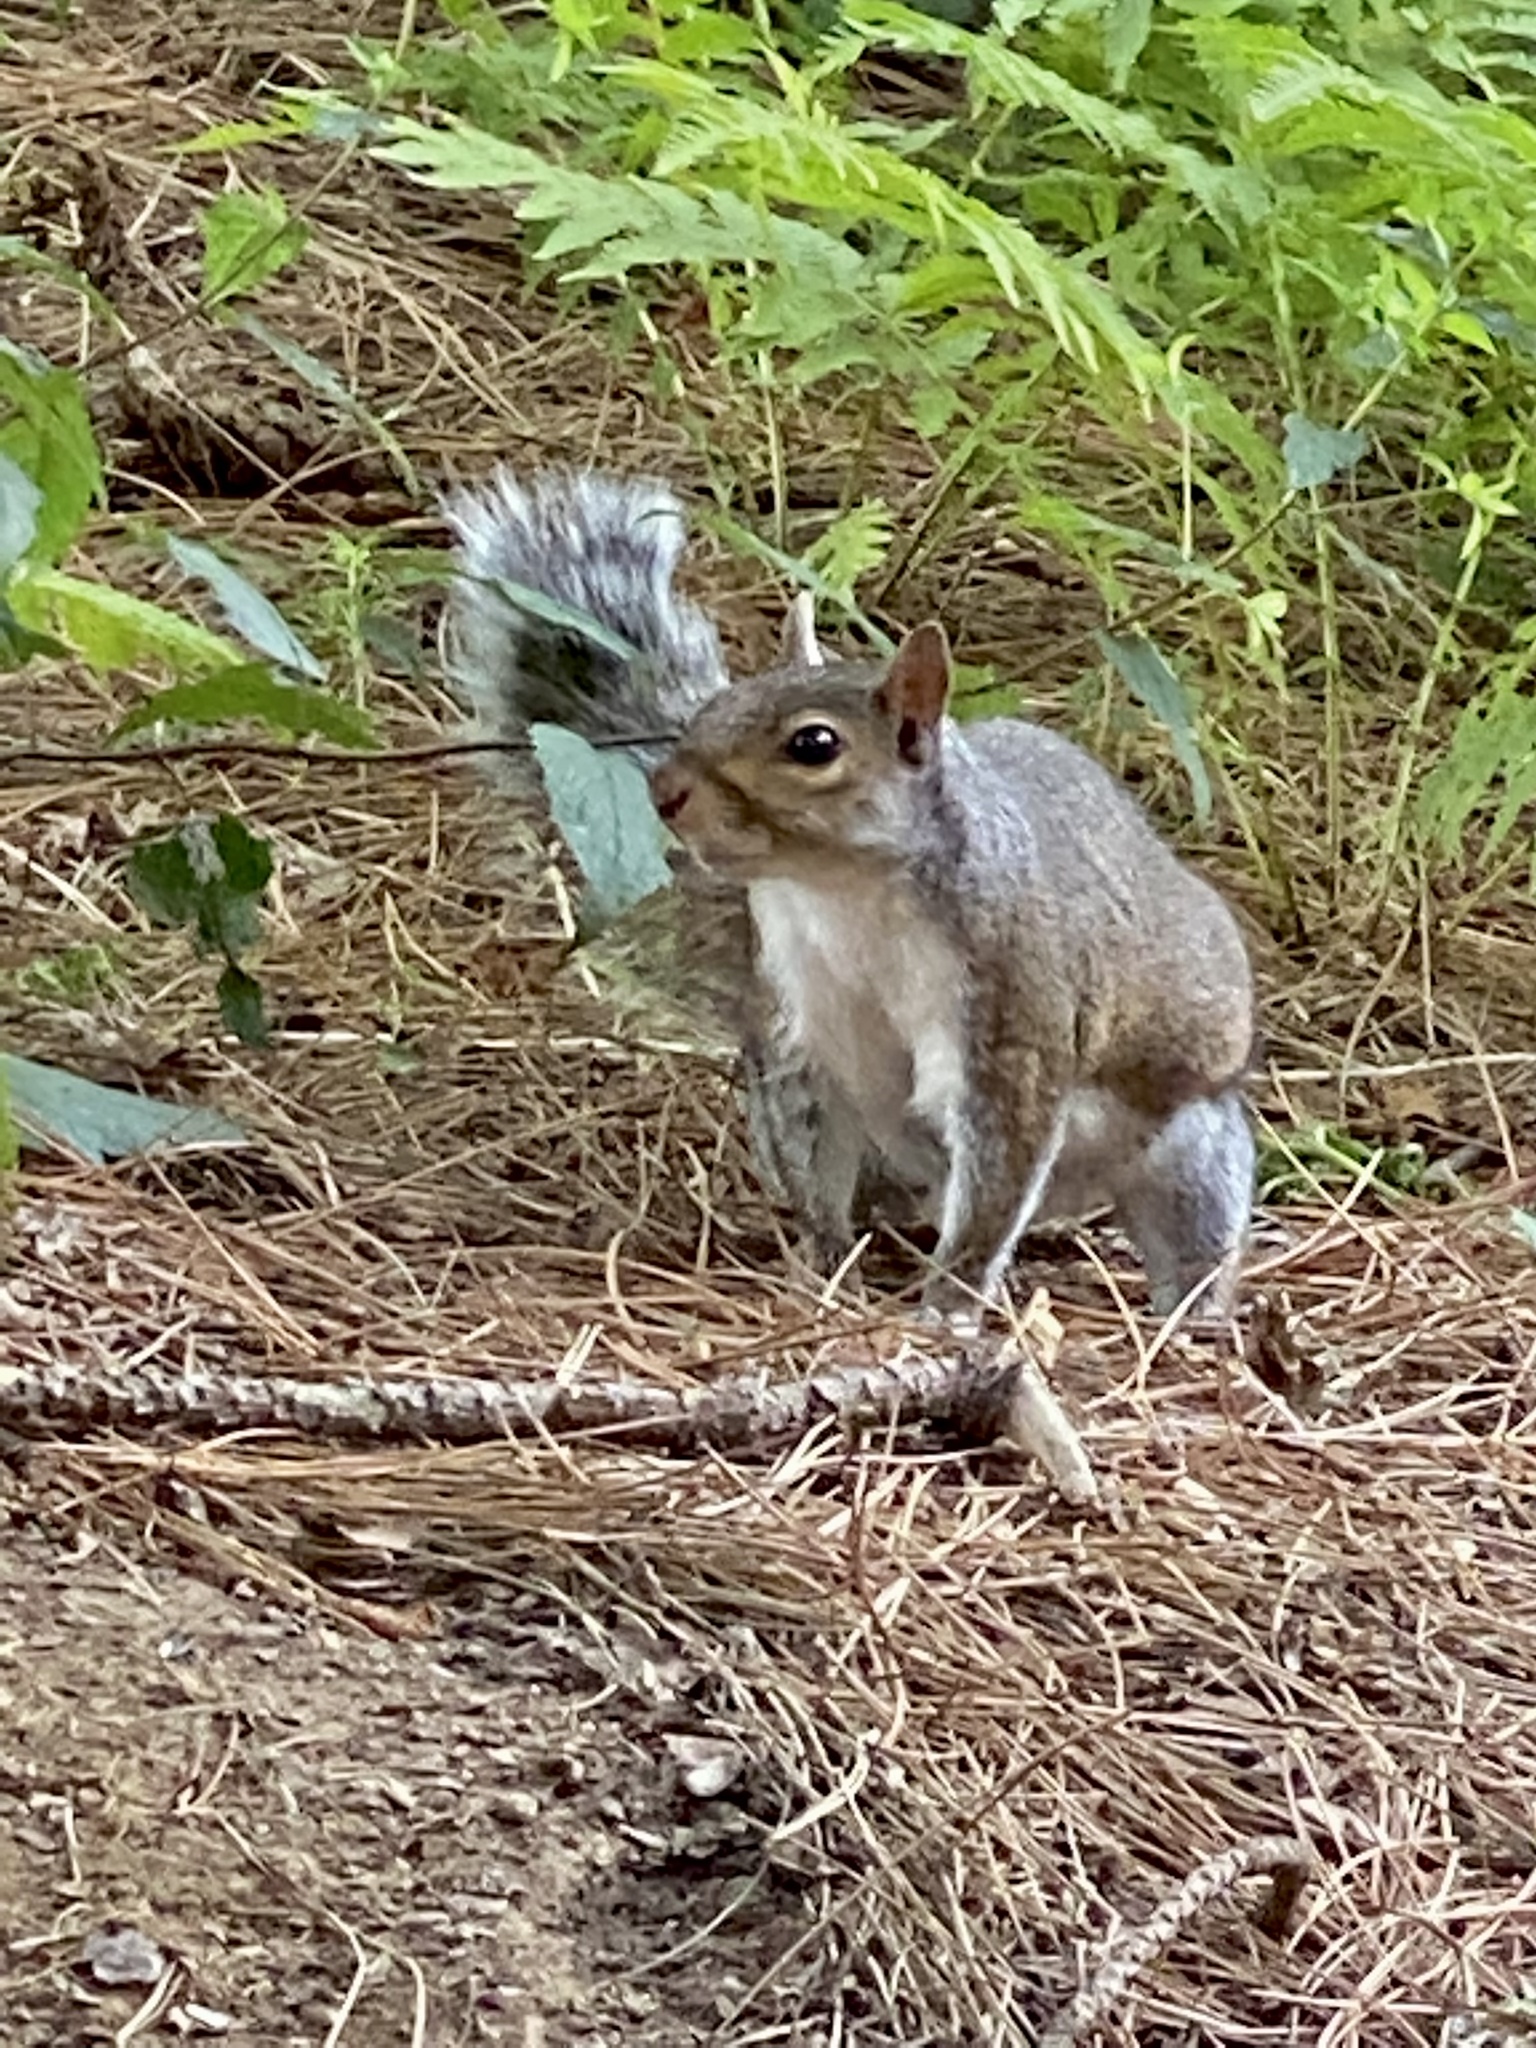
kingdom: Animalia
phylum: Chordata
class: Mammalia
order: Rodentia
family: Sciuridae
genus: Sciurus
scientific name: Sciurus carolinensis
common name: Eastern gray squirrel
